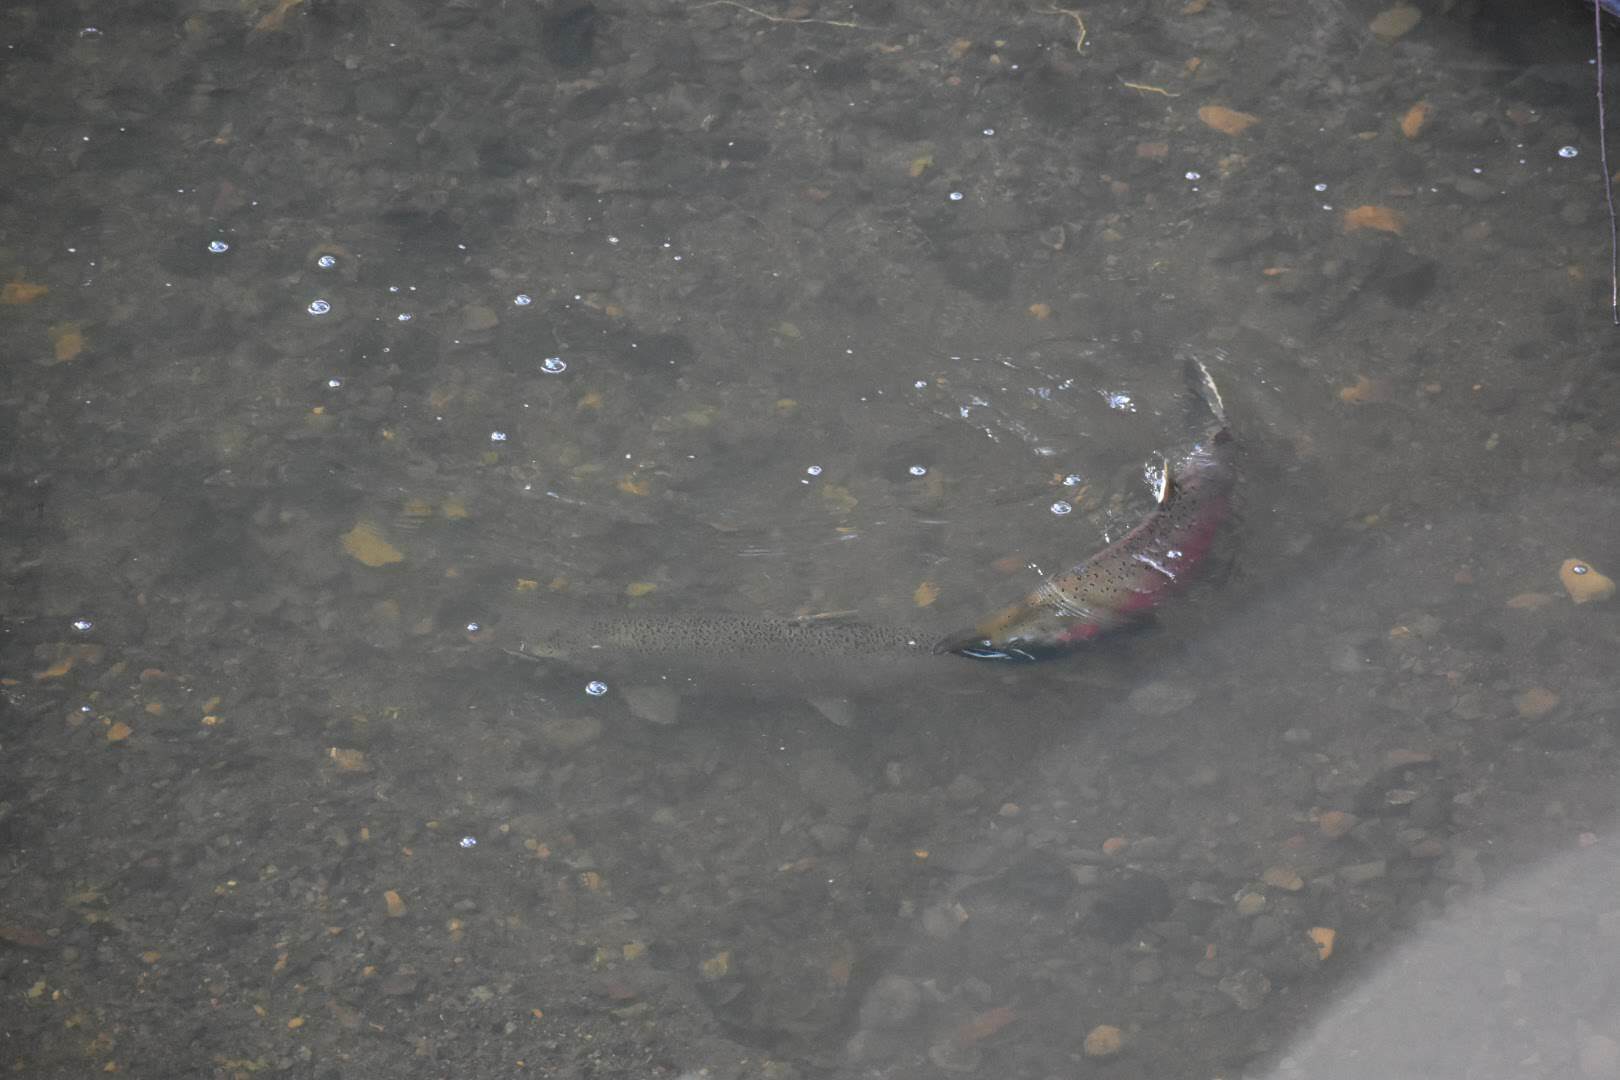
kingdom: Animalia
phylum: Chordata
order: Salmoniformes
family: Salmonidae
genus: Oncorhynchus
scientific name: Oncorhynchus kisutch
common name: Coho salmon
